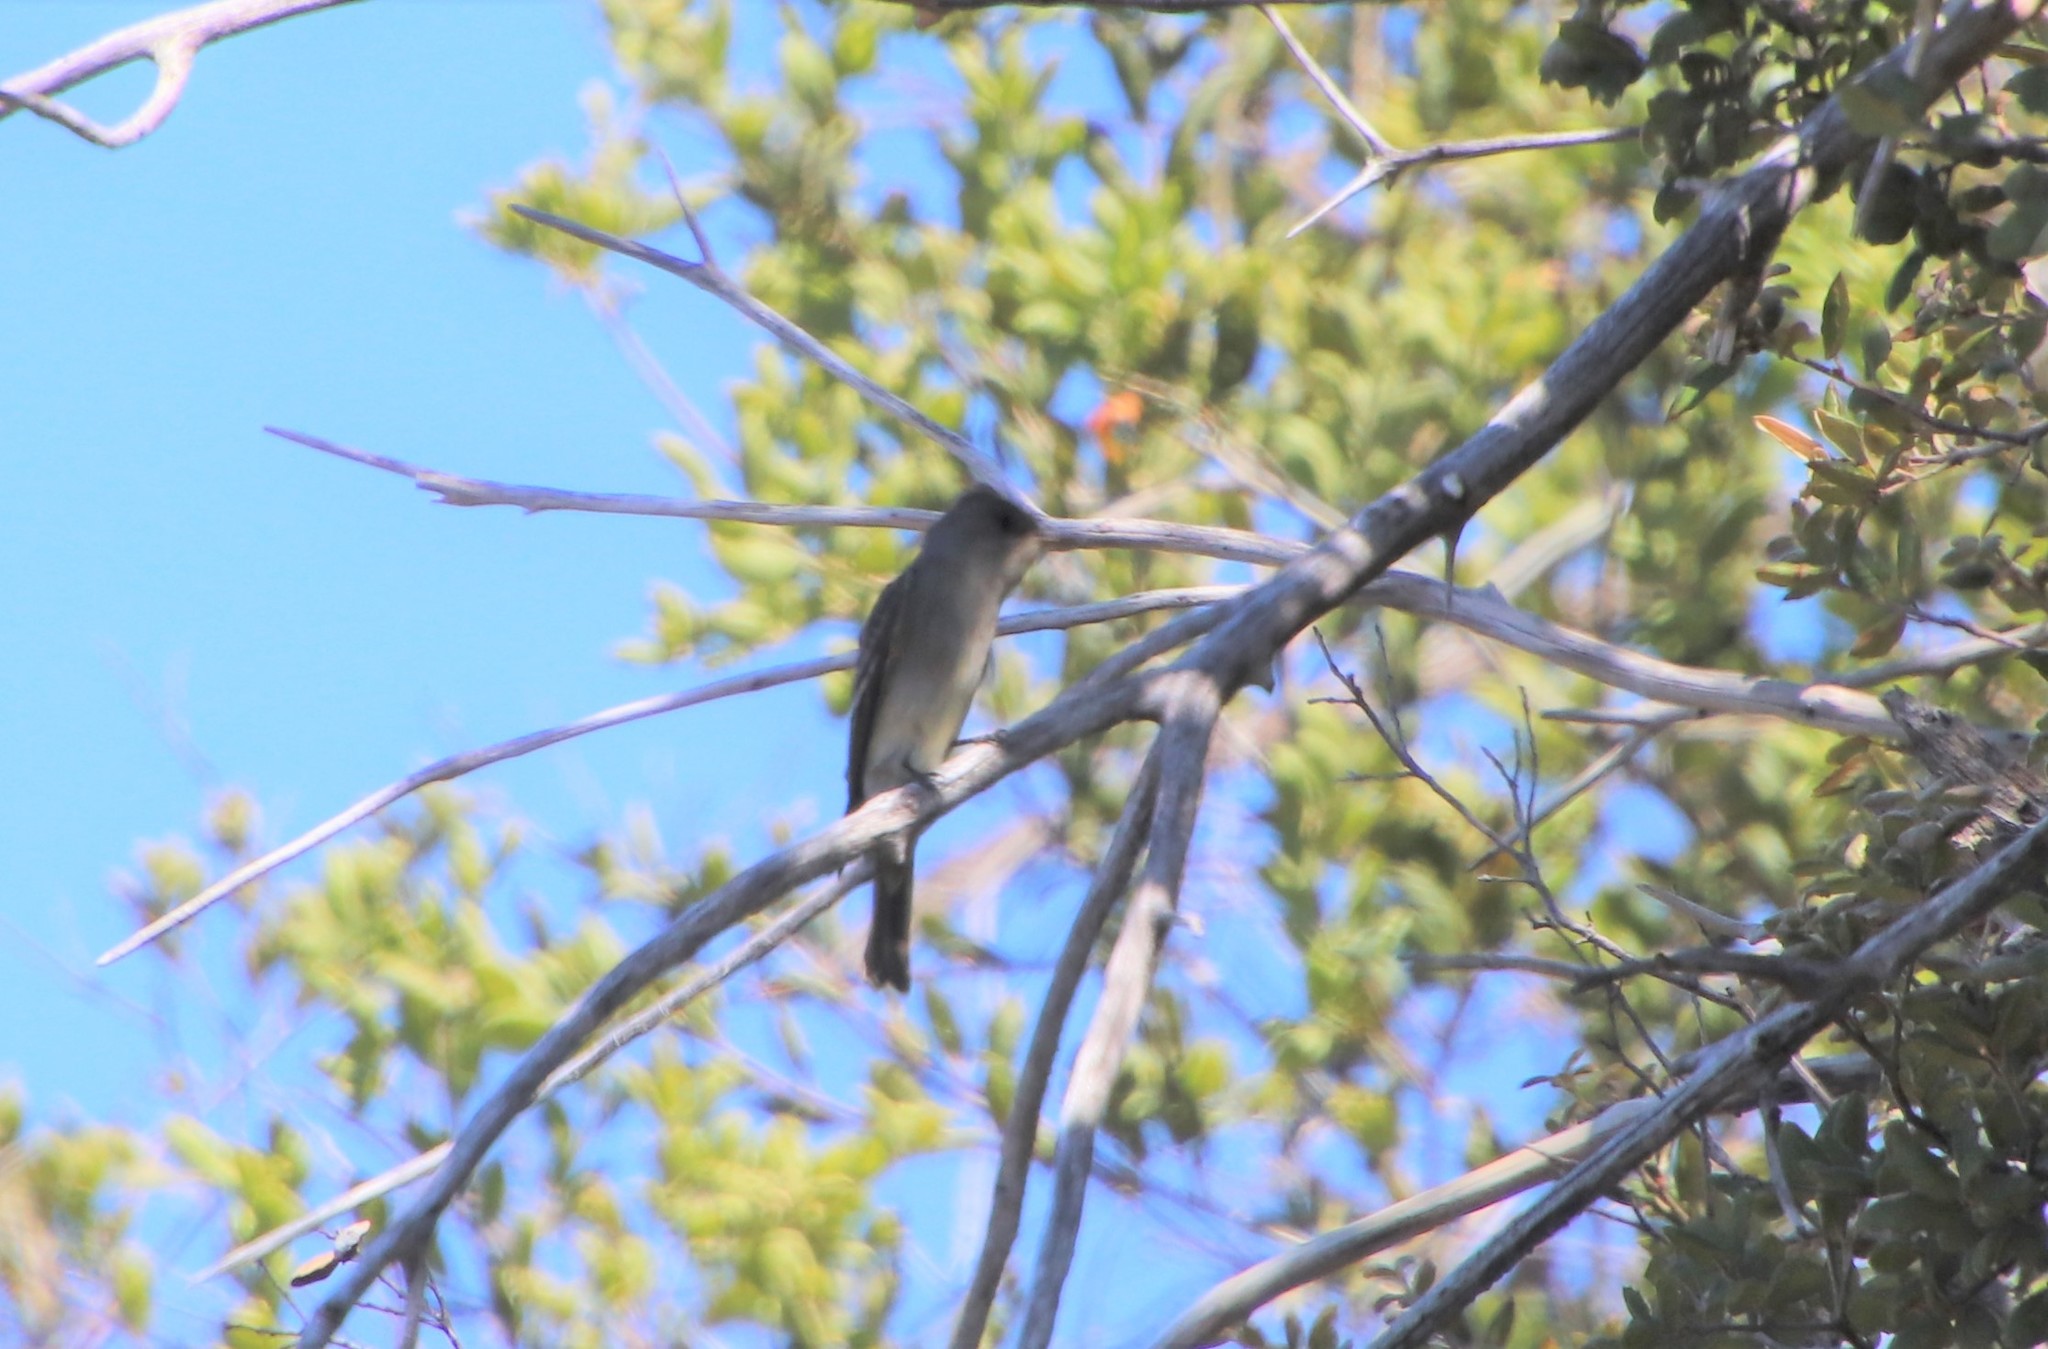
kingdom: Animalia
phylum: Chordata
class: Aves
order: Passeriformes
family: Tyrannidae
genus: Contopus
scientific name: Contopus sordidulus
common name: Western wood-pewee
